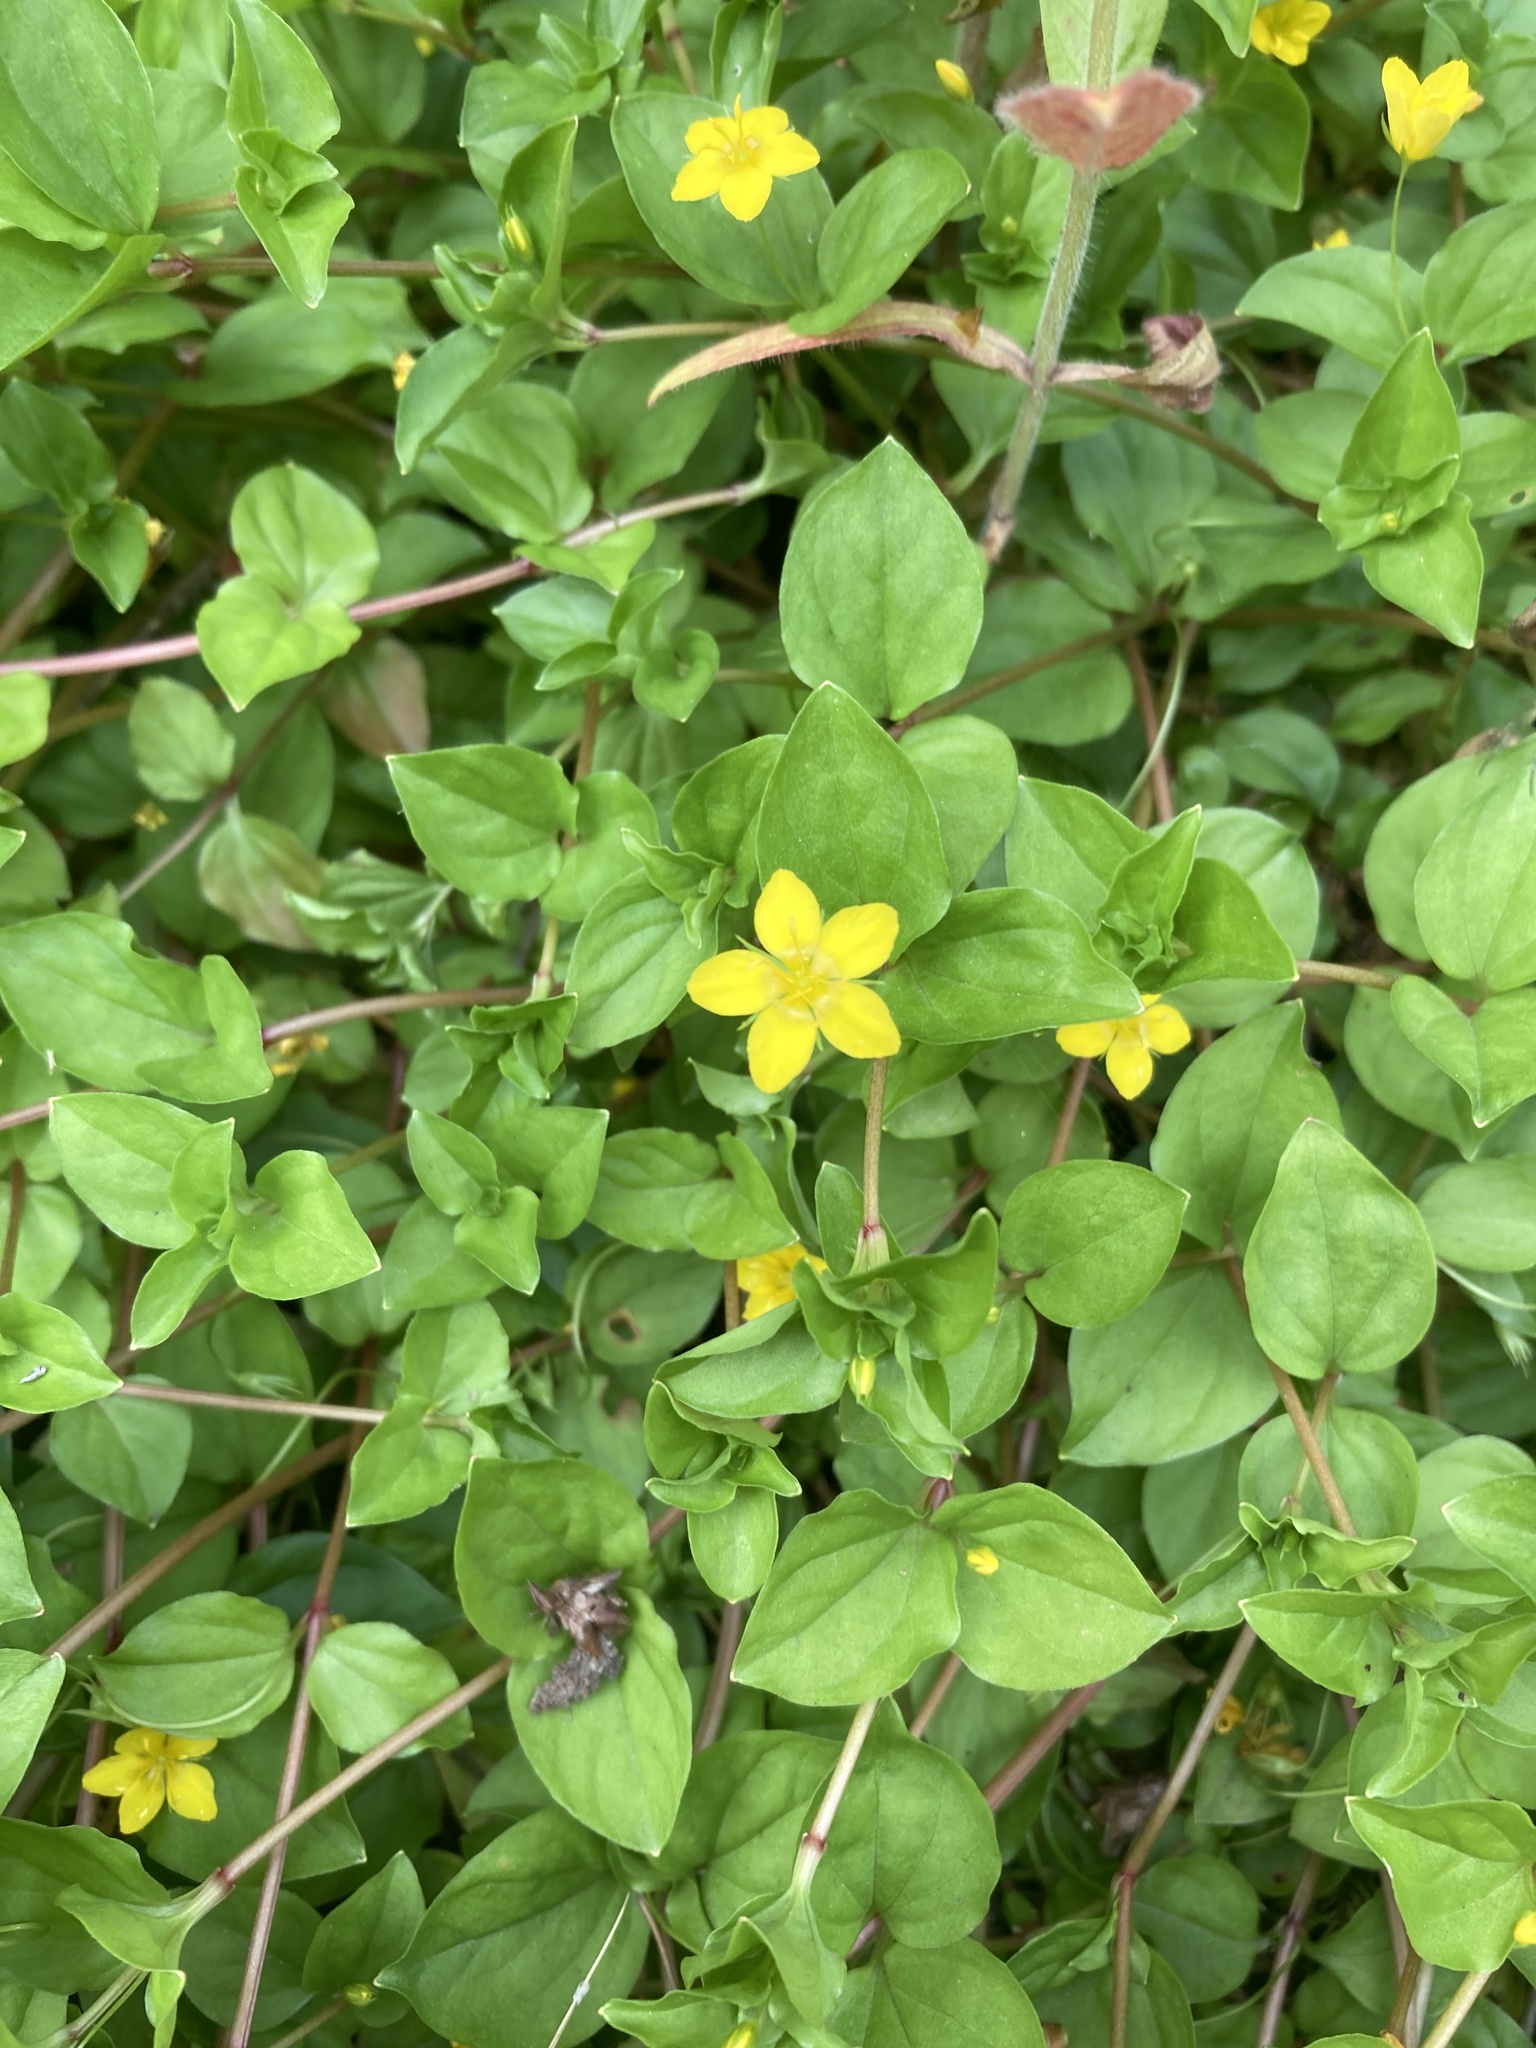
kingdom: Plantae
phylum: Tracheophyta
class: Magnoliopsida
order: Ericales
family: Primulaceae
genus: Lysimachia
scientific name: Lysimachia nemorum
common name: Yellow pimpernel
